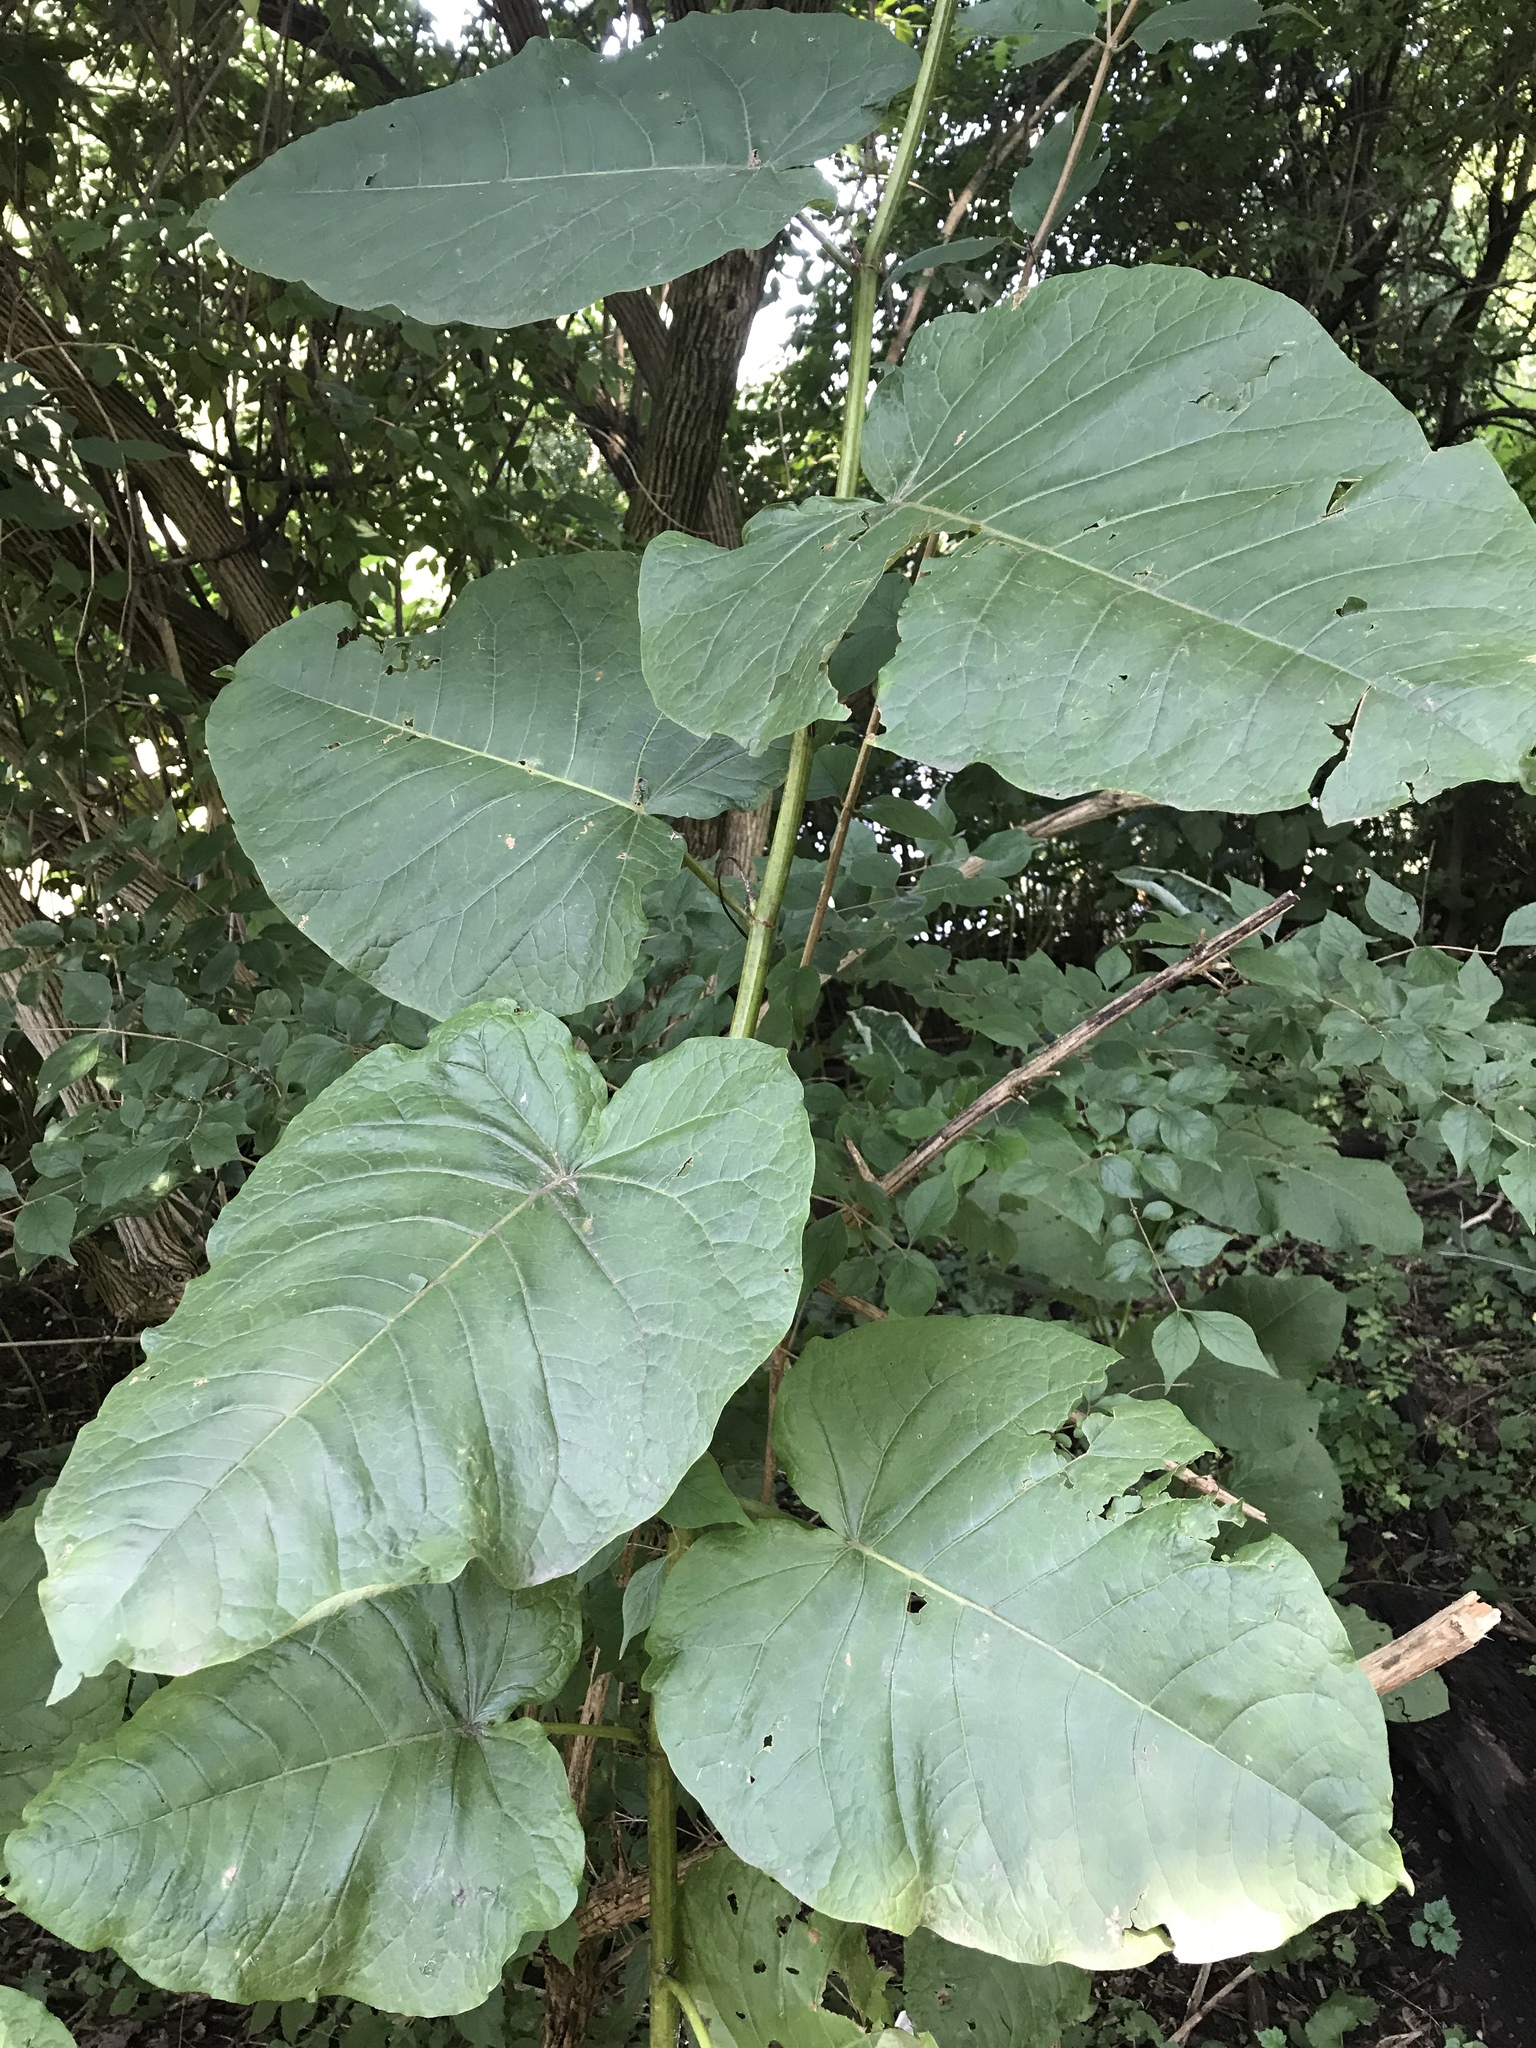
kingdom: Plantae
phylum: Tracheophyta
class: Magnoliopsida
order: Caryophyllales
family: Polygonaceae
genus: Reynoutria
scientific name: Reynoutria sachalinensis
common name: Giant knotweed
